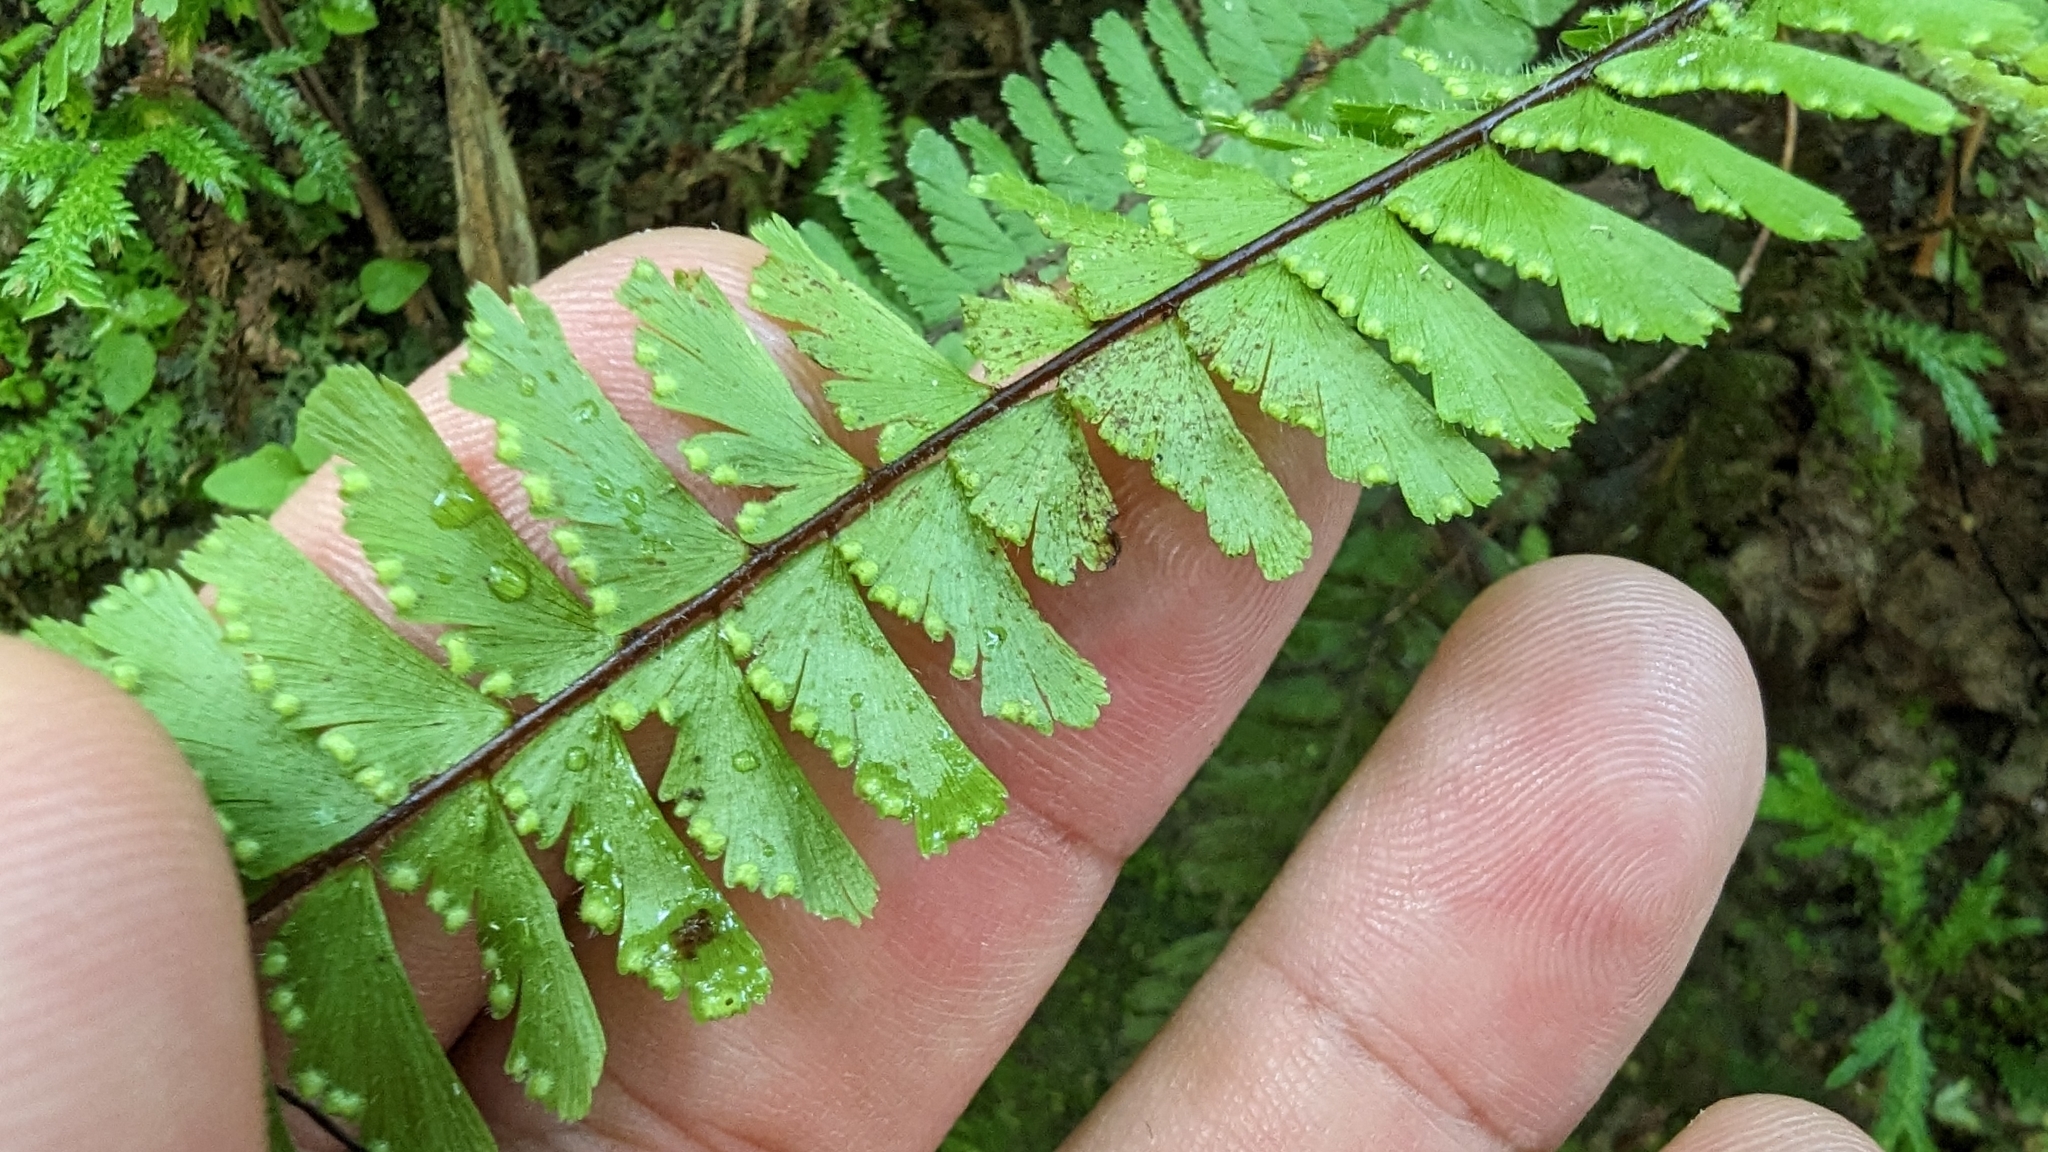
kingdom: Plantae
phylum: Tracheophyta
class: Polypodiopsida
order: Polypodiales
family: Pteridaceae
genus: Adiantum
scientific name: Adiantum caudatum
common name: Tailed maidenhair
